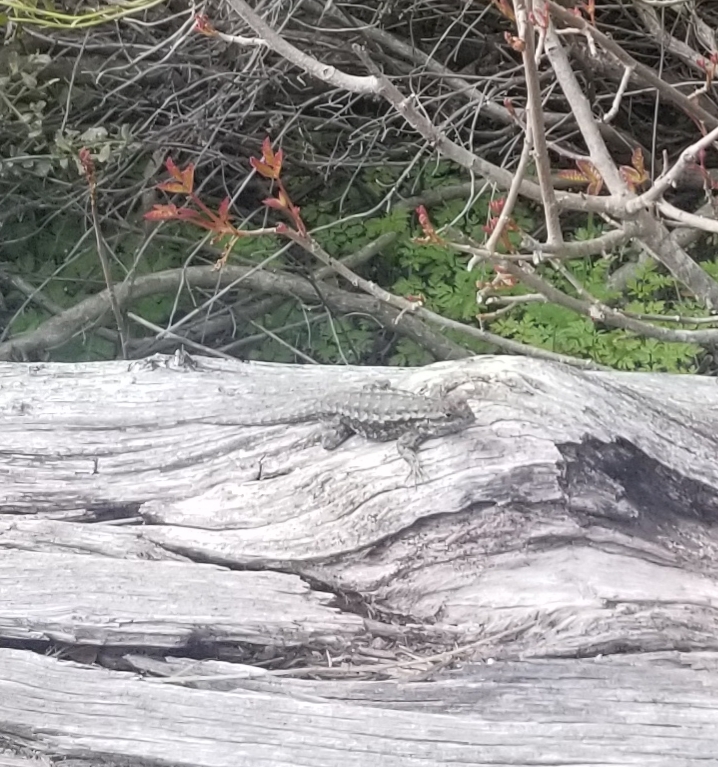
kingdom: Animalia
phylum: Chordata
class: Squamata
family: Phrynosomatidae
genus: Sceloporus
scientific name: Sceloporus occidentalis
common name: Western fence lizard
